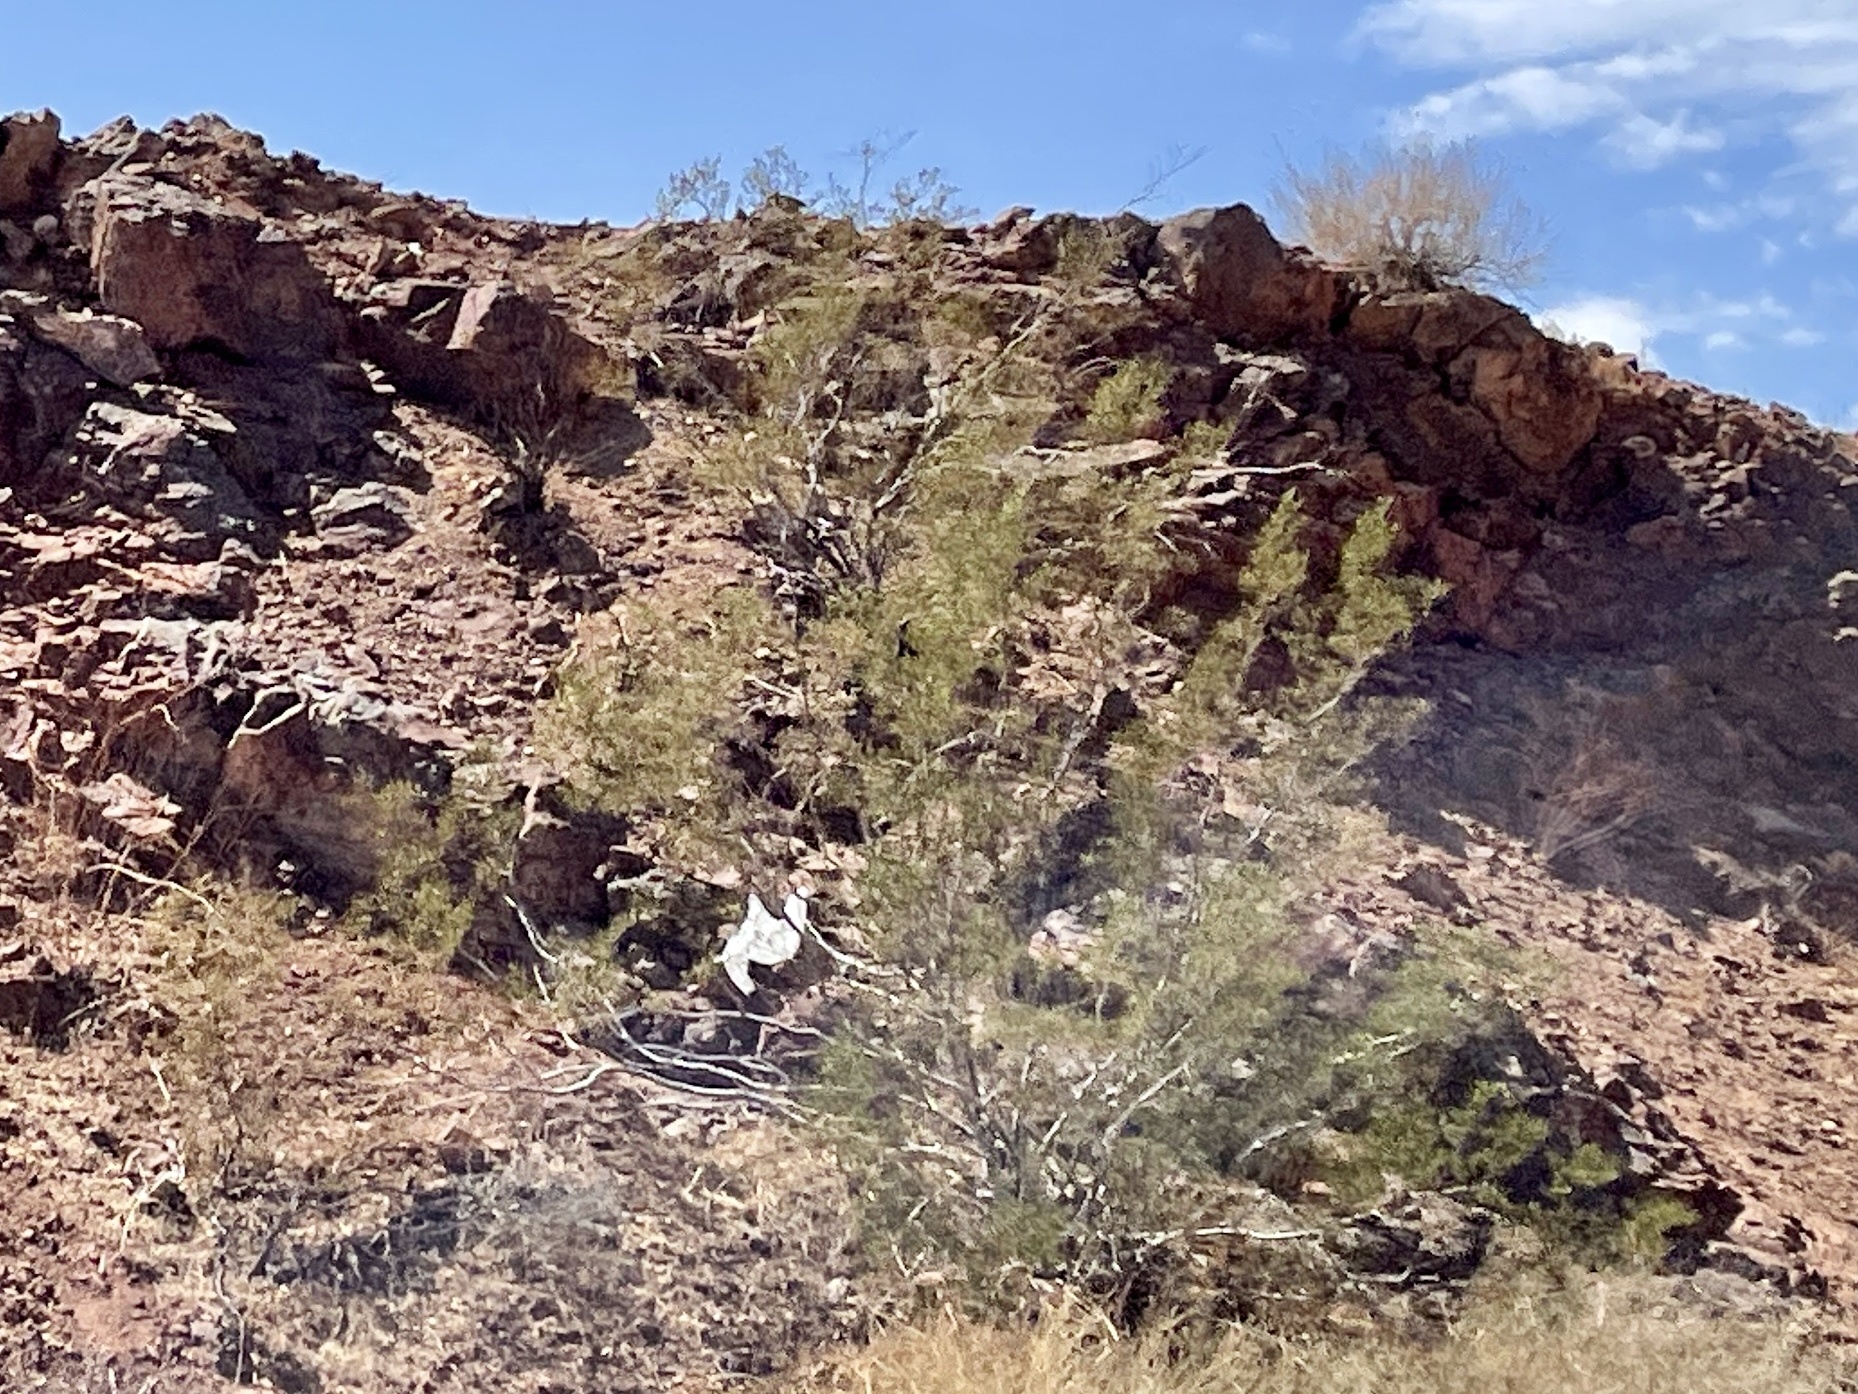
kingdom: Plantae
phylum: Tracheophyta
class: Magnoliopsida
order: Zygophyllales
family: Zygophyllaceae
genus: Larrea
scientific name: Larrea tridentata
